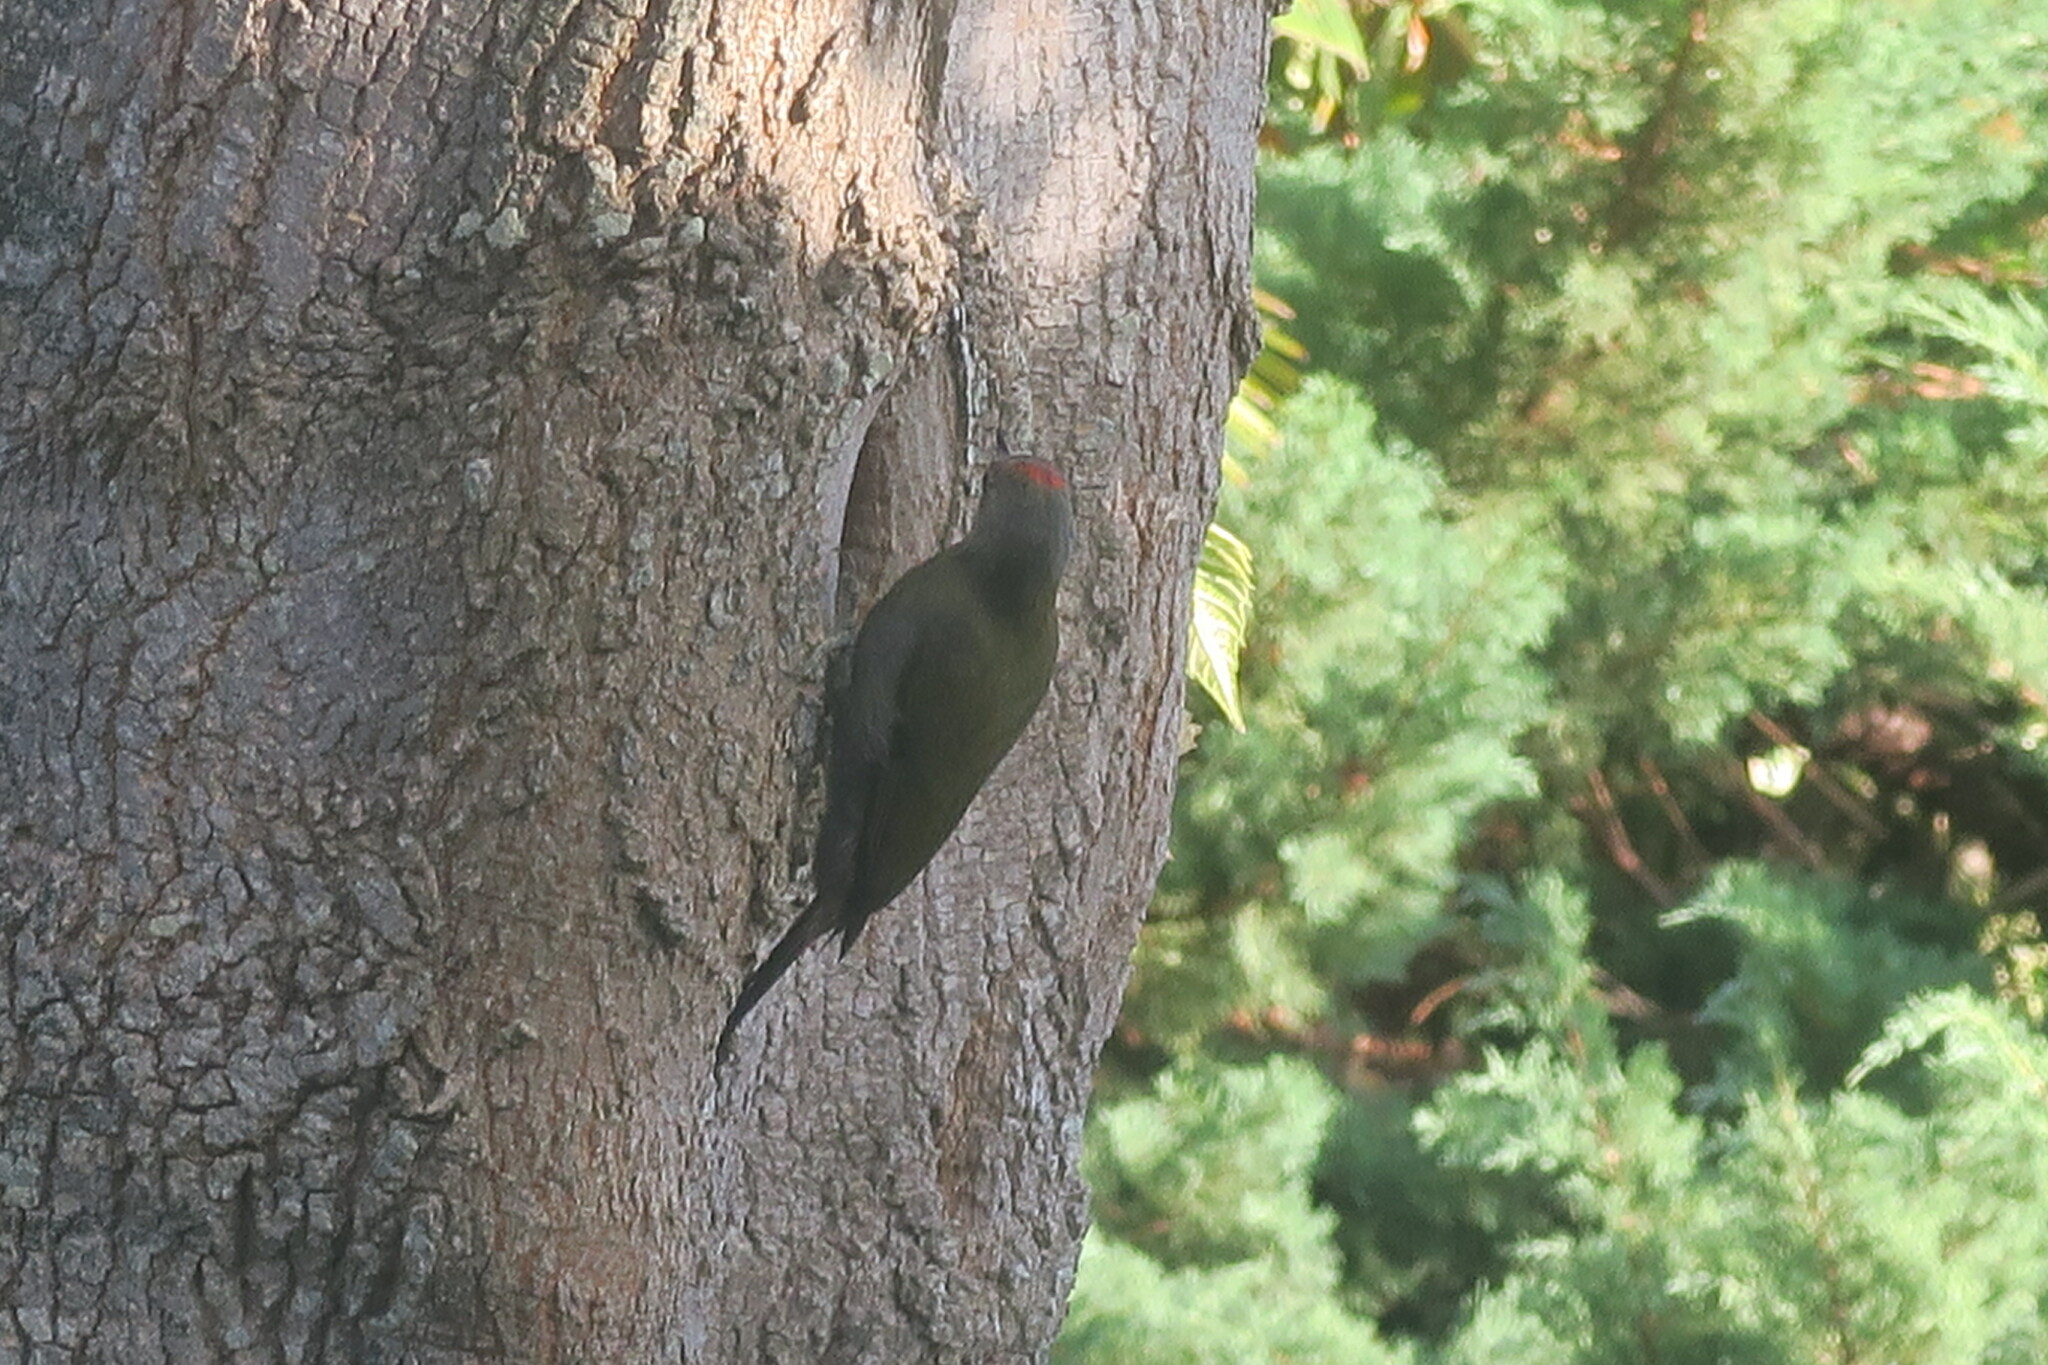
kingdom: Animalia
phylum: Chordata
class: Aves
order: Piciformes
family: Picidae
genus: Dendropicos
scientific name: Dendropicos griseocephalus
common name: Olive woodpecker
